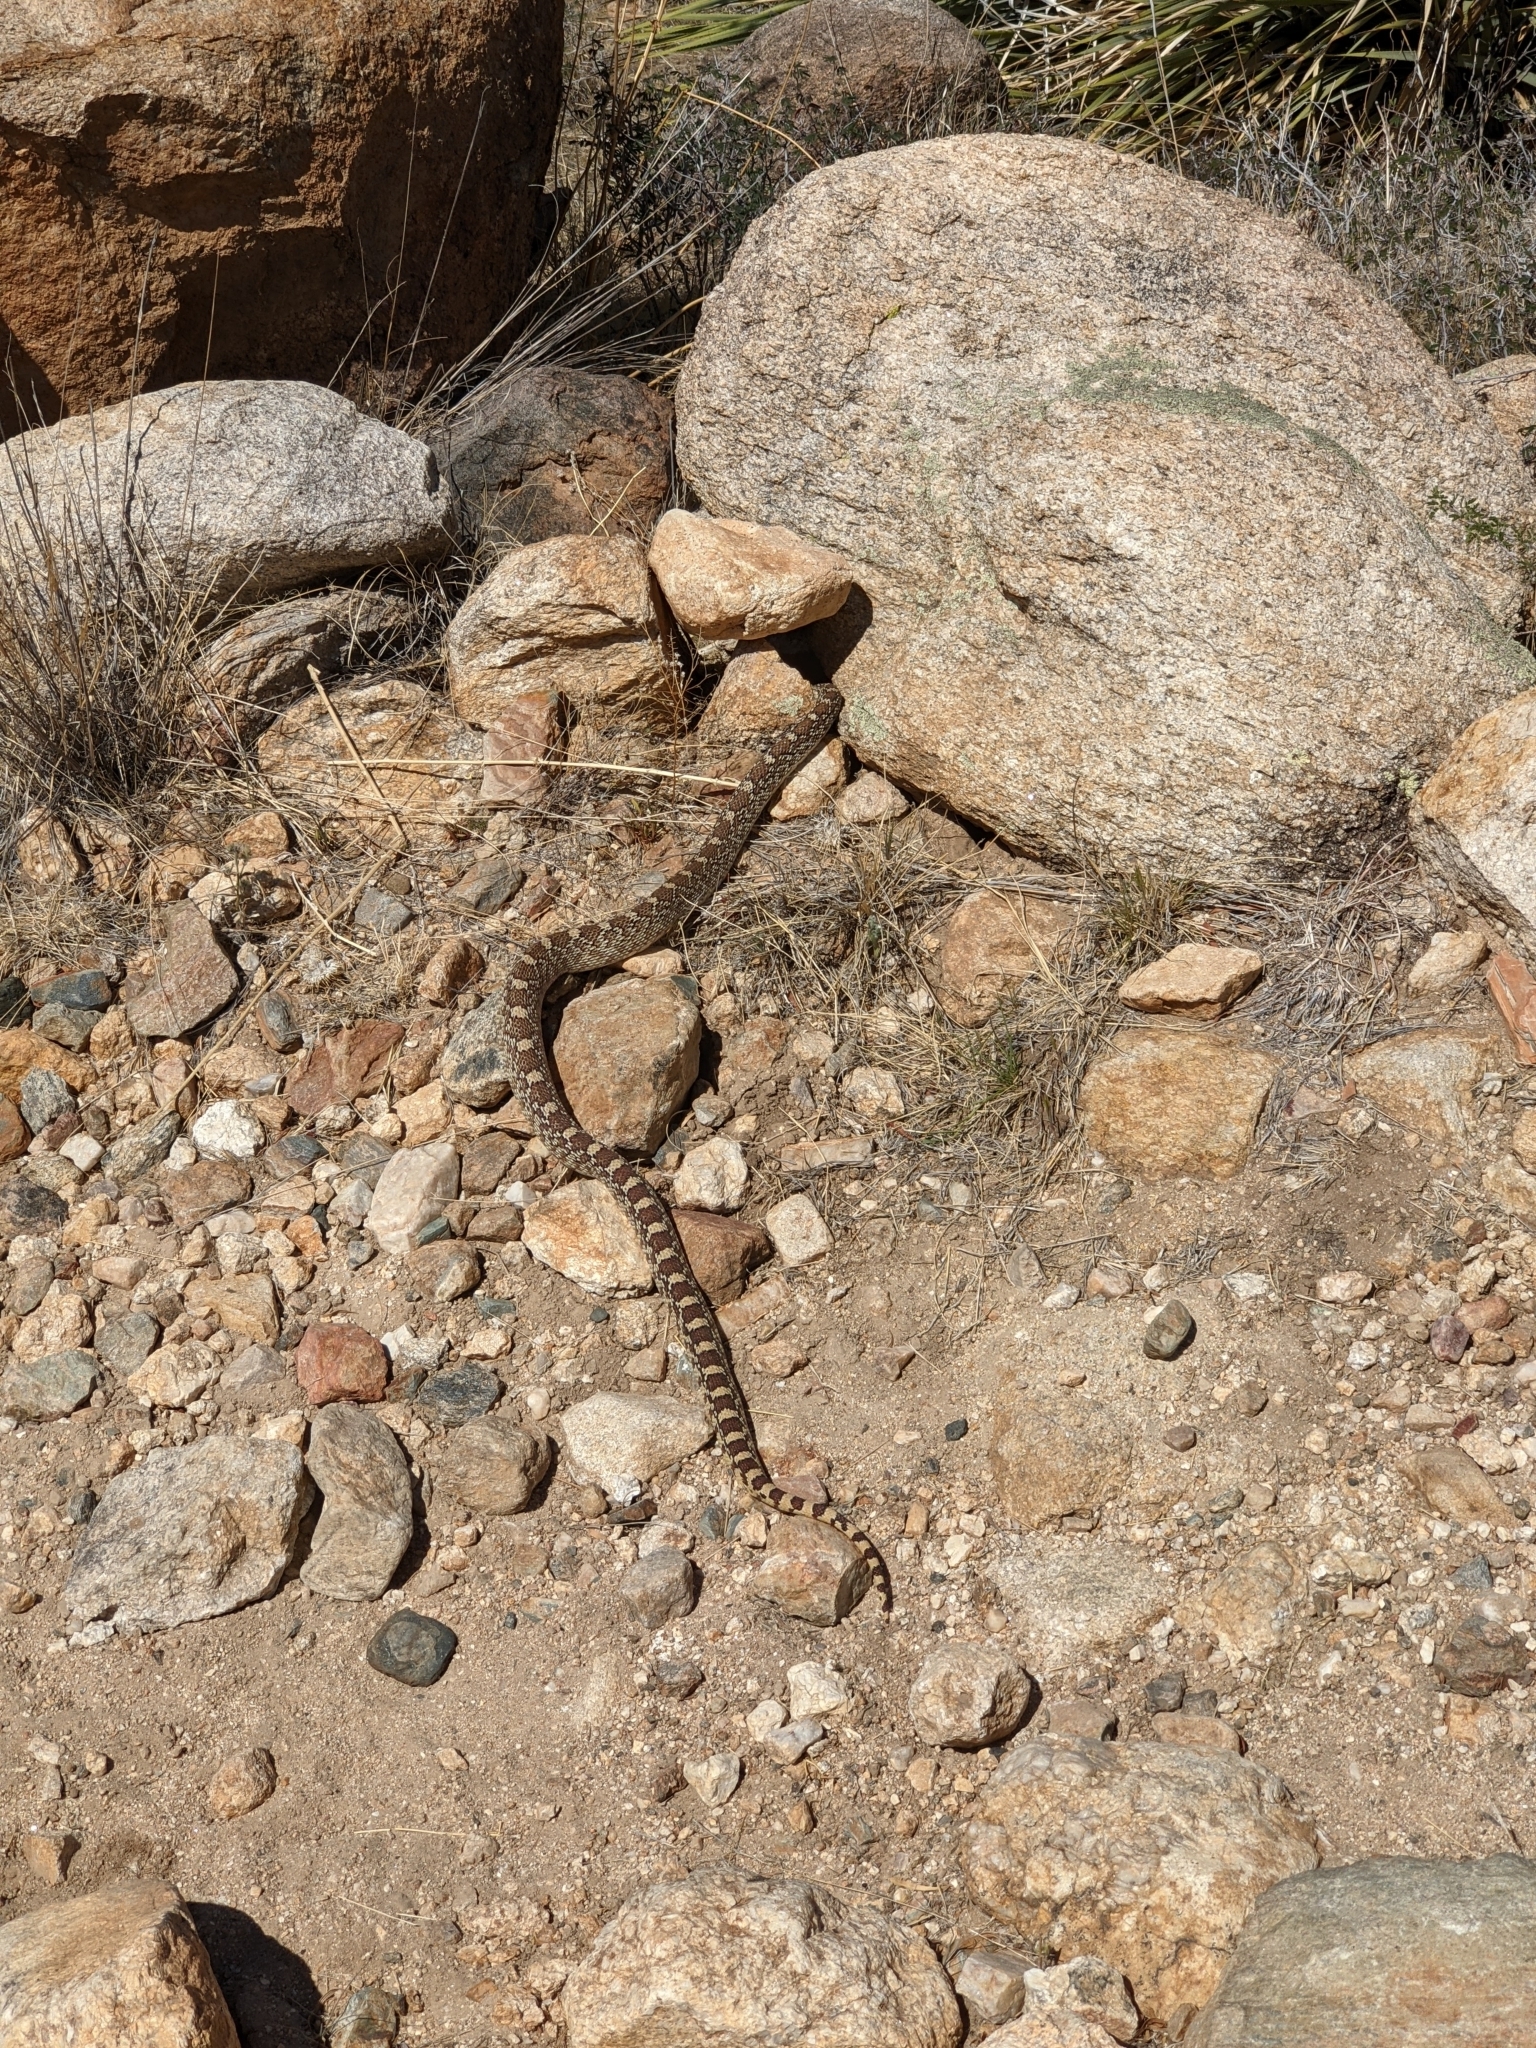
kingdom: Animalia
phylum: Chordata
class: Squamata
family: Colubridae
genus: Pituophis
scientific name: Pituophis catenifer
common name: Gopher snake
